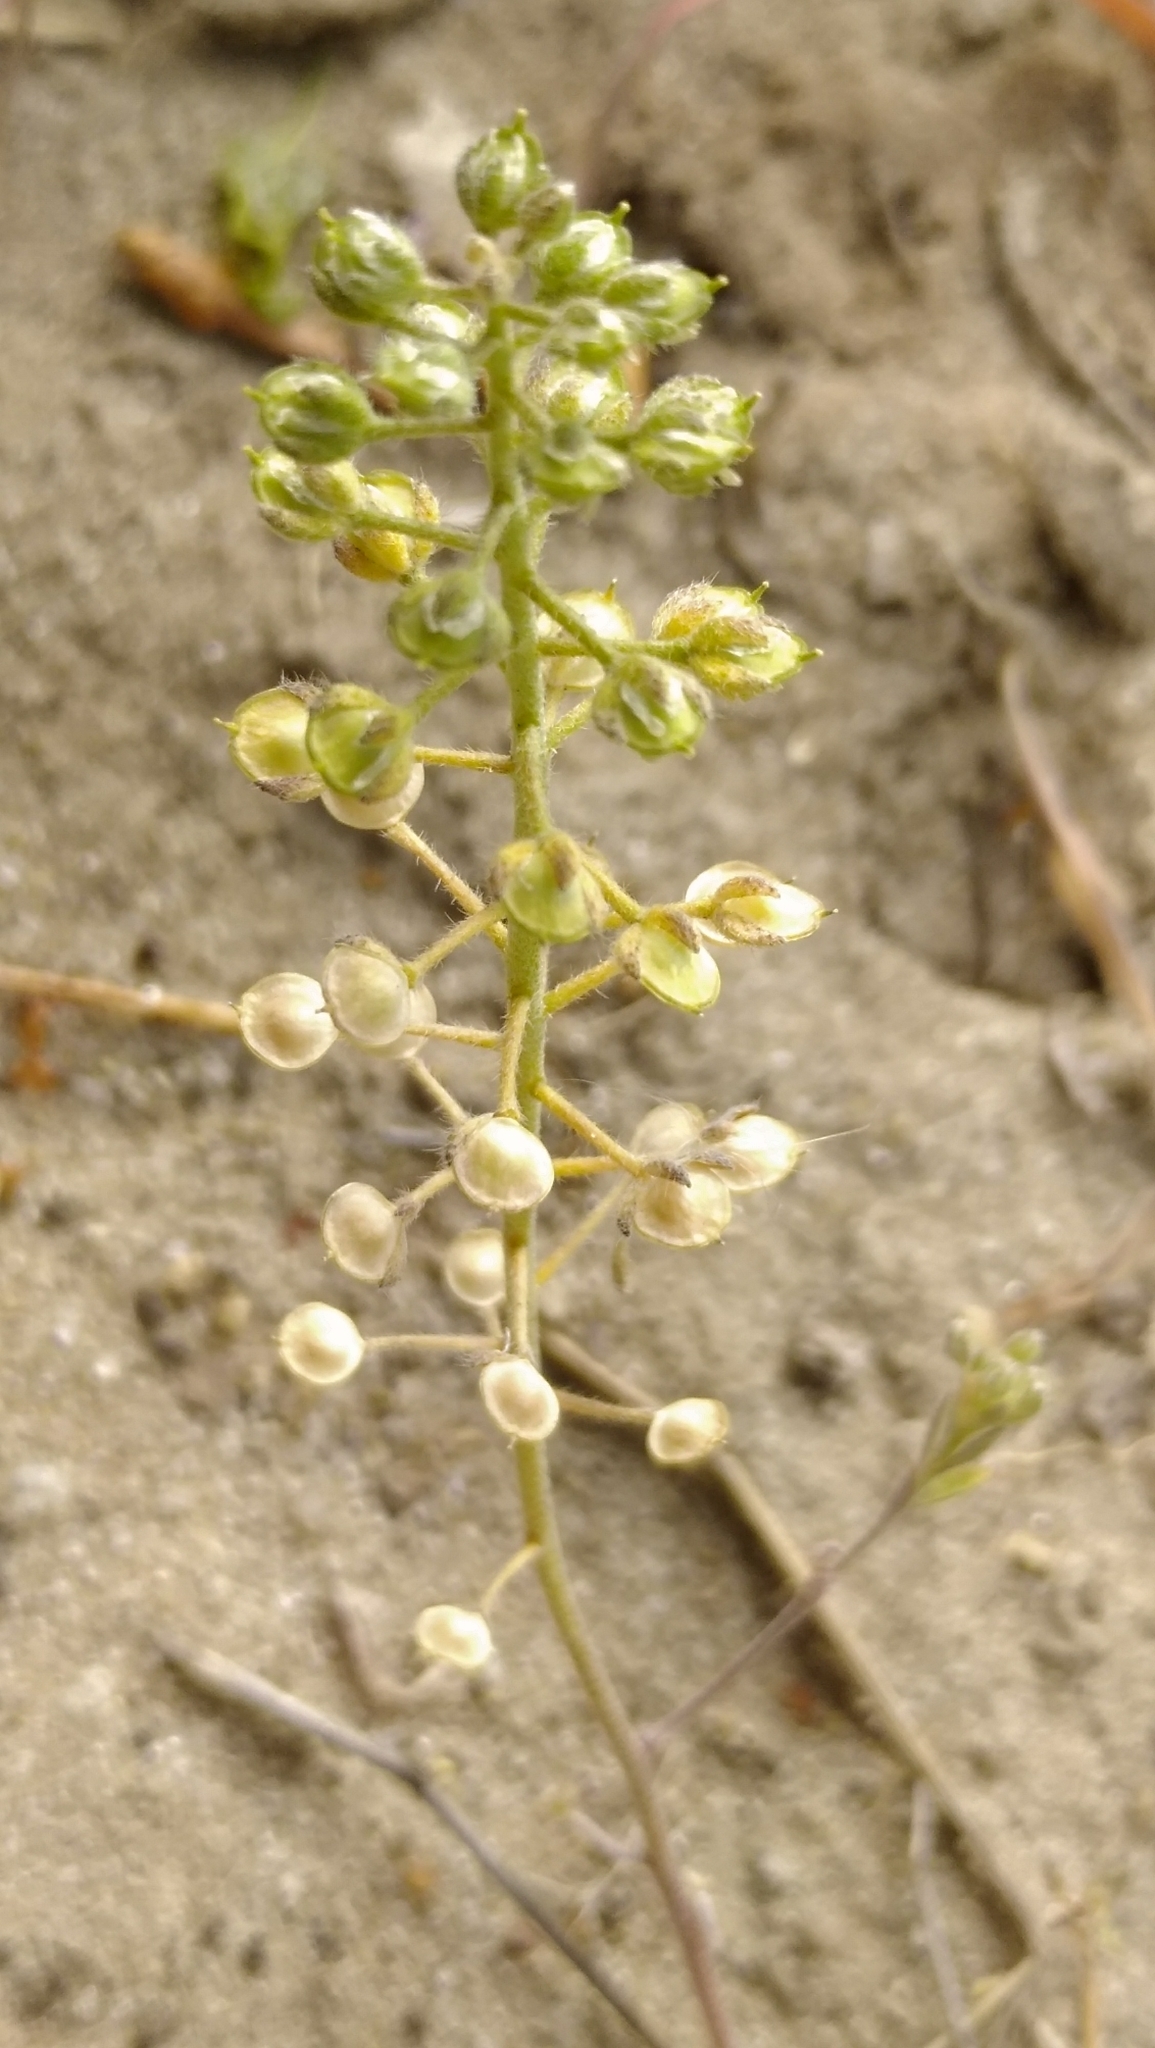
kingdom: Plantae
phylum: Tracheophyta
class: Magnoliopsida
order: Brassicales
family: Brassicaceae
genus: Alyssum
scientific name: Alyssum alyssoides
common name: Small alison
